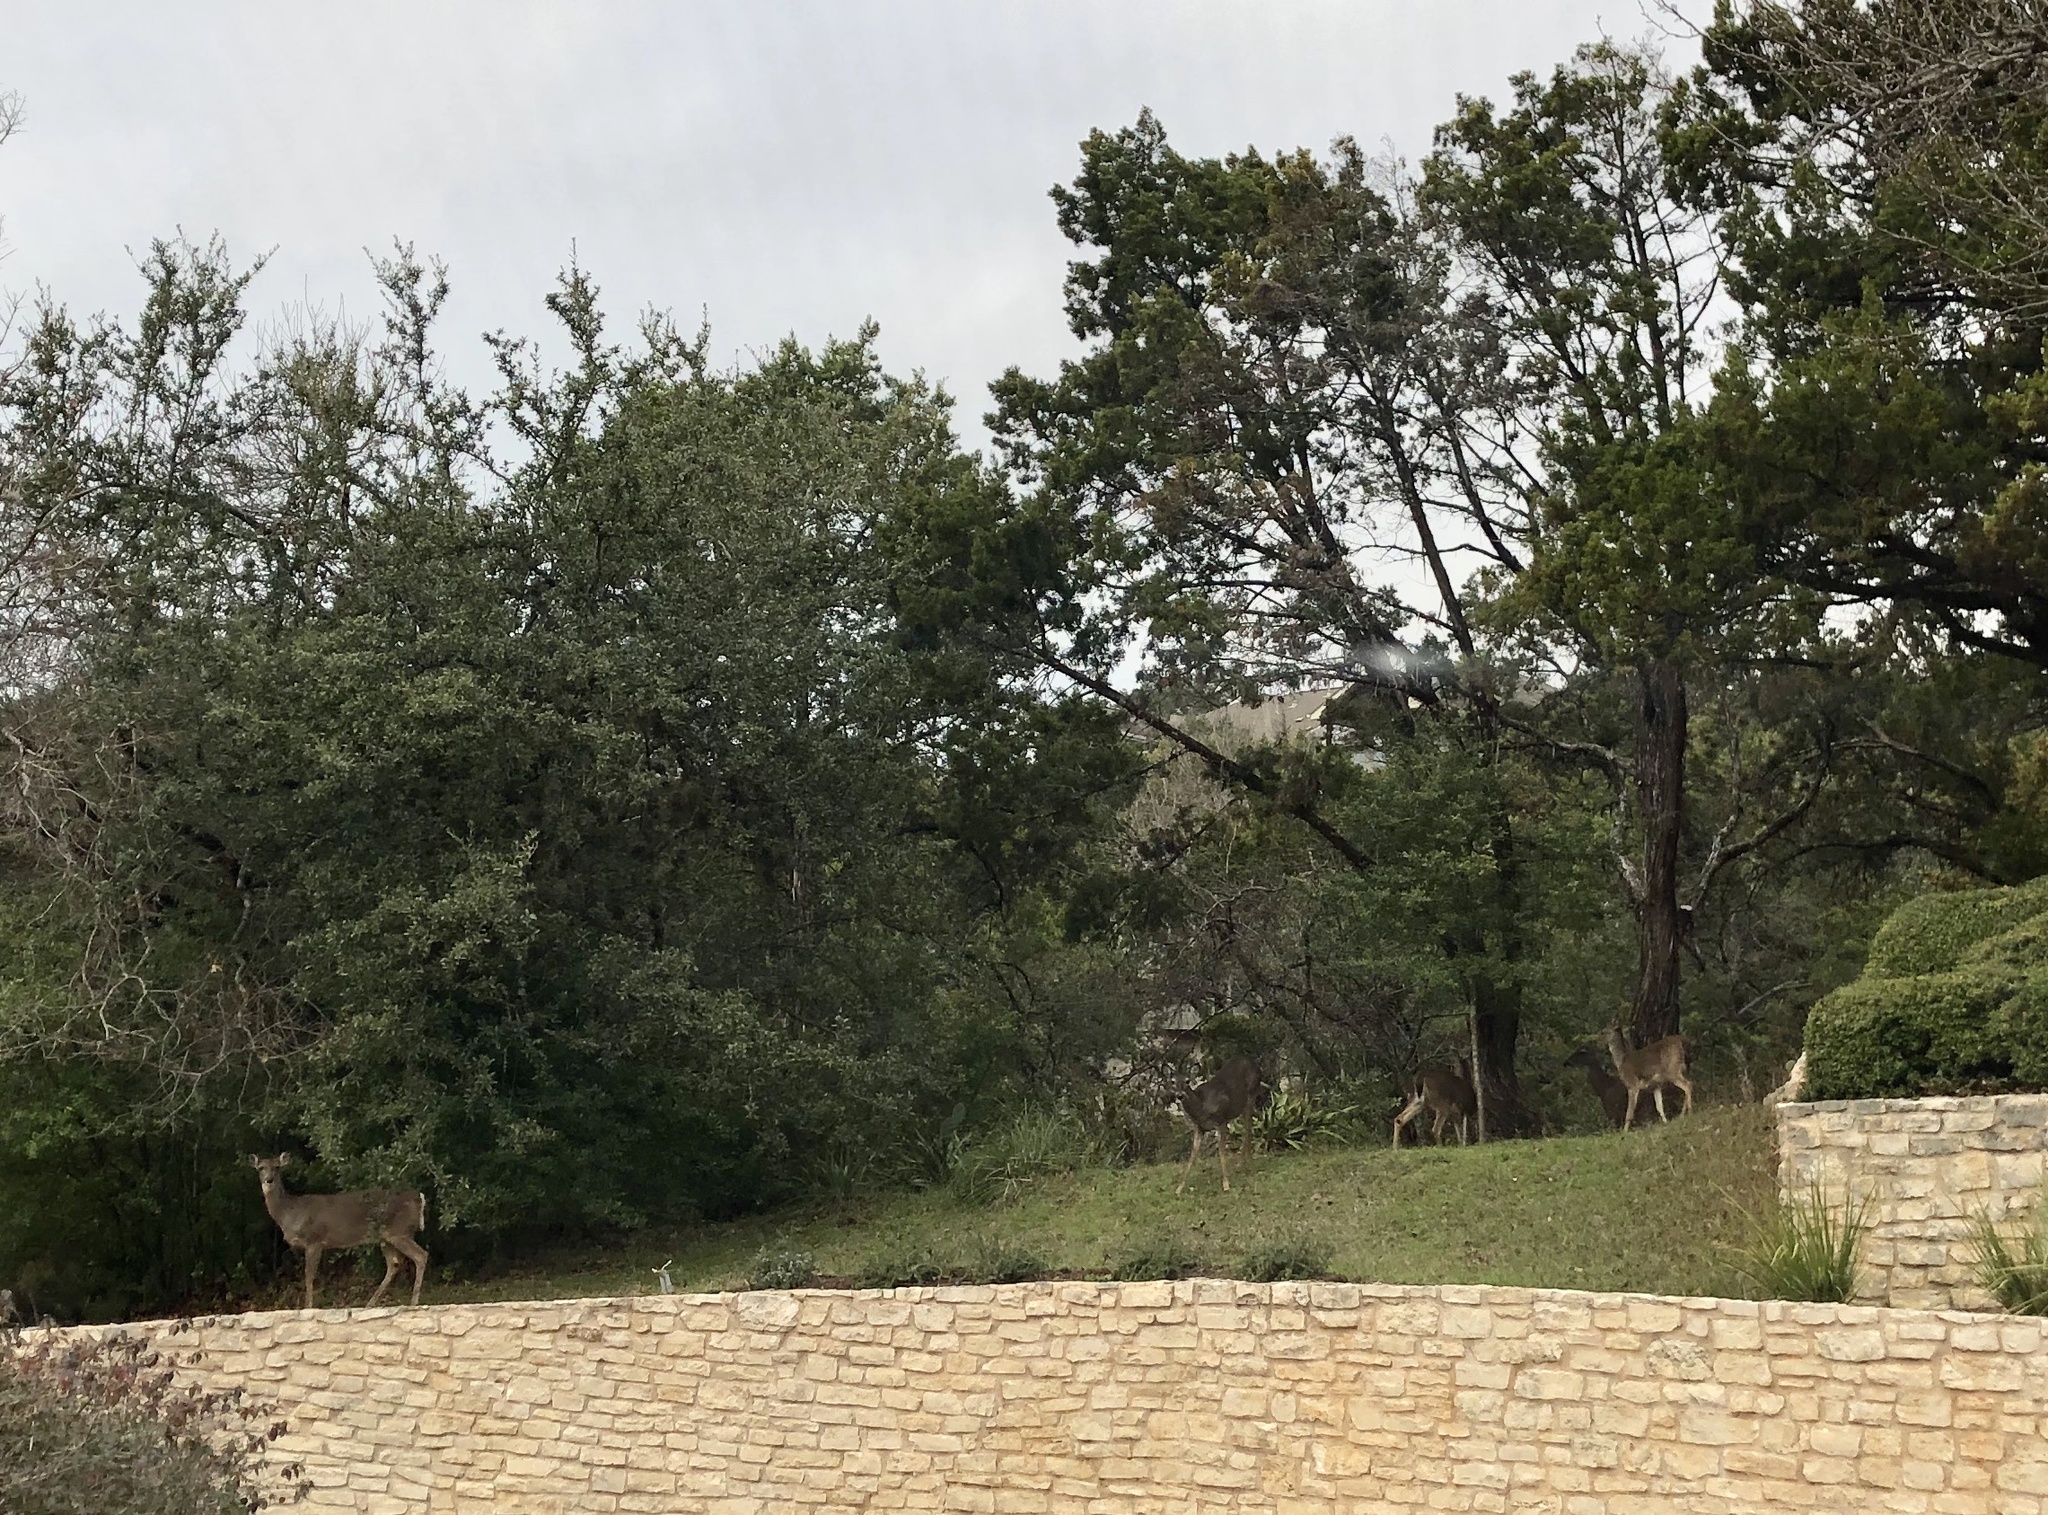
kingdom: Animalia
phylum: Chordata
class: Mammalia
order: Artiodactyla
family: Cervidae
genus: Odocoileus
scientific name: Odocoileus virginianus
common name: White-tailed deer
